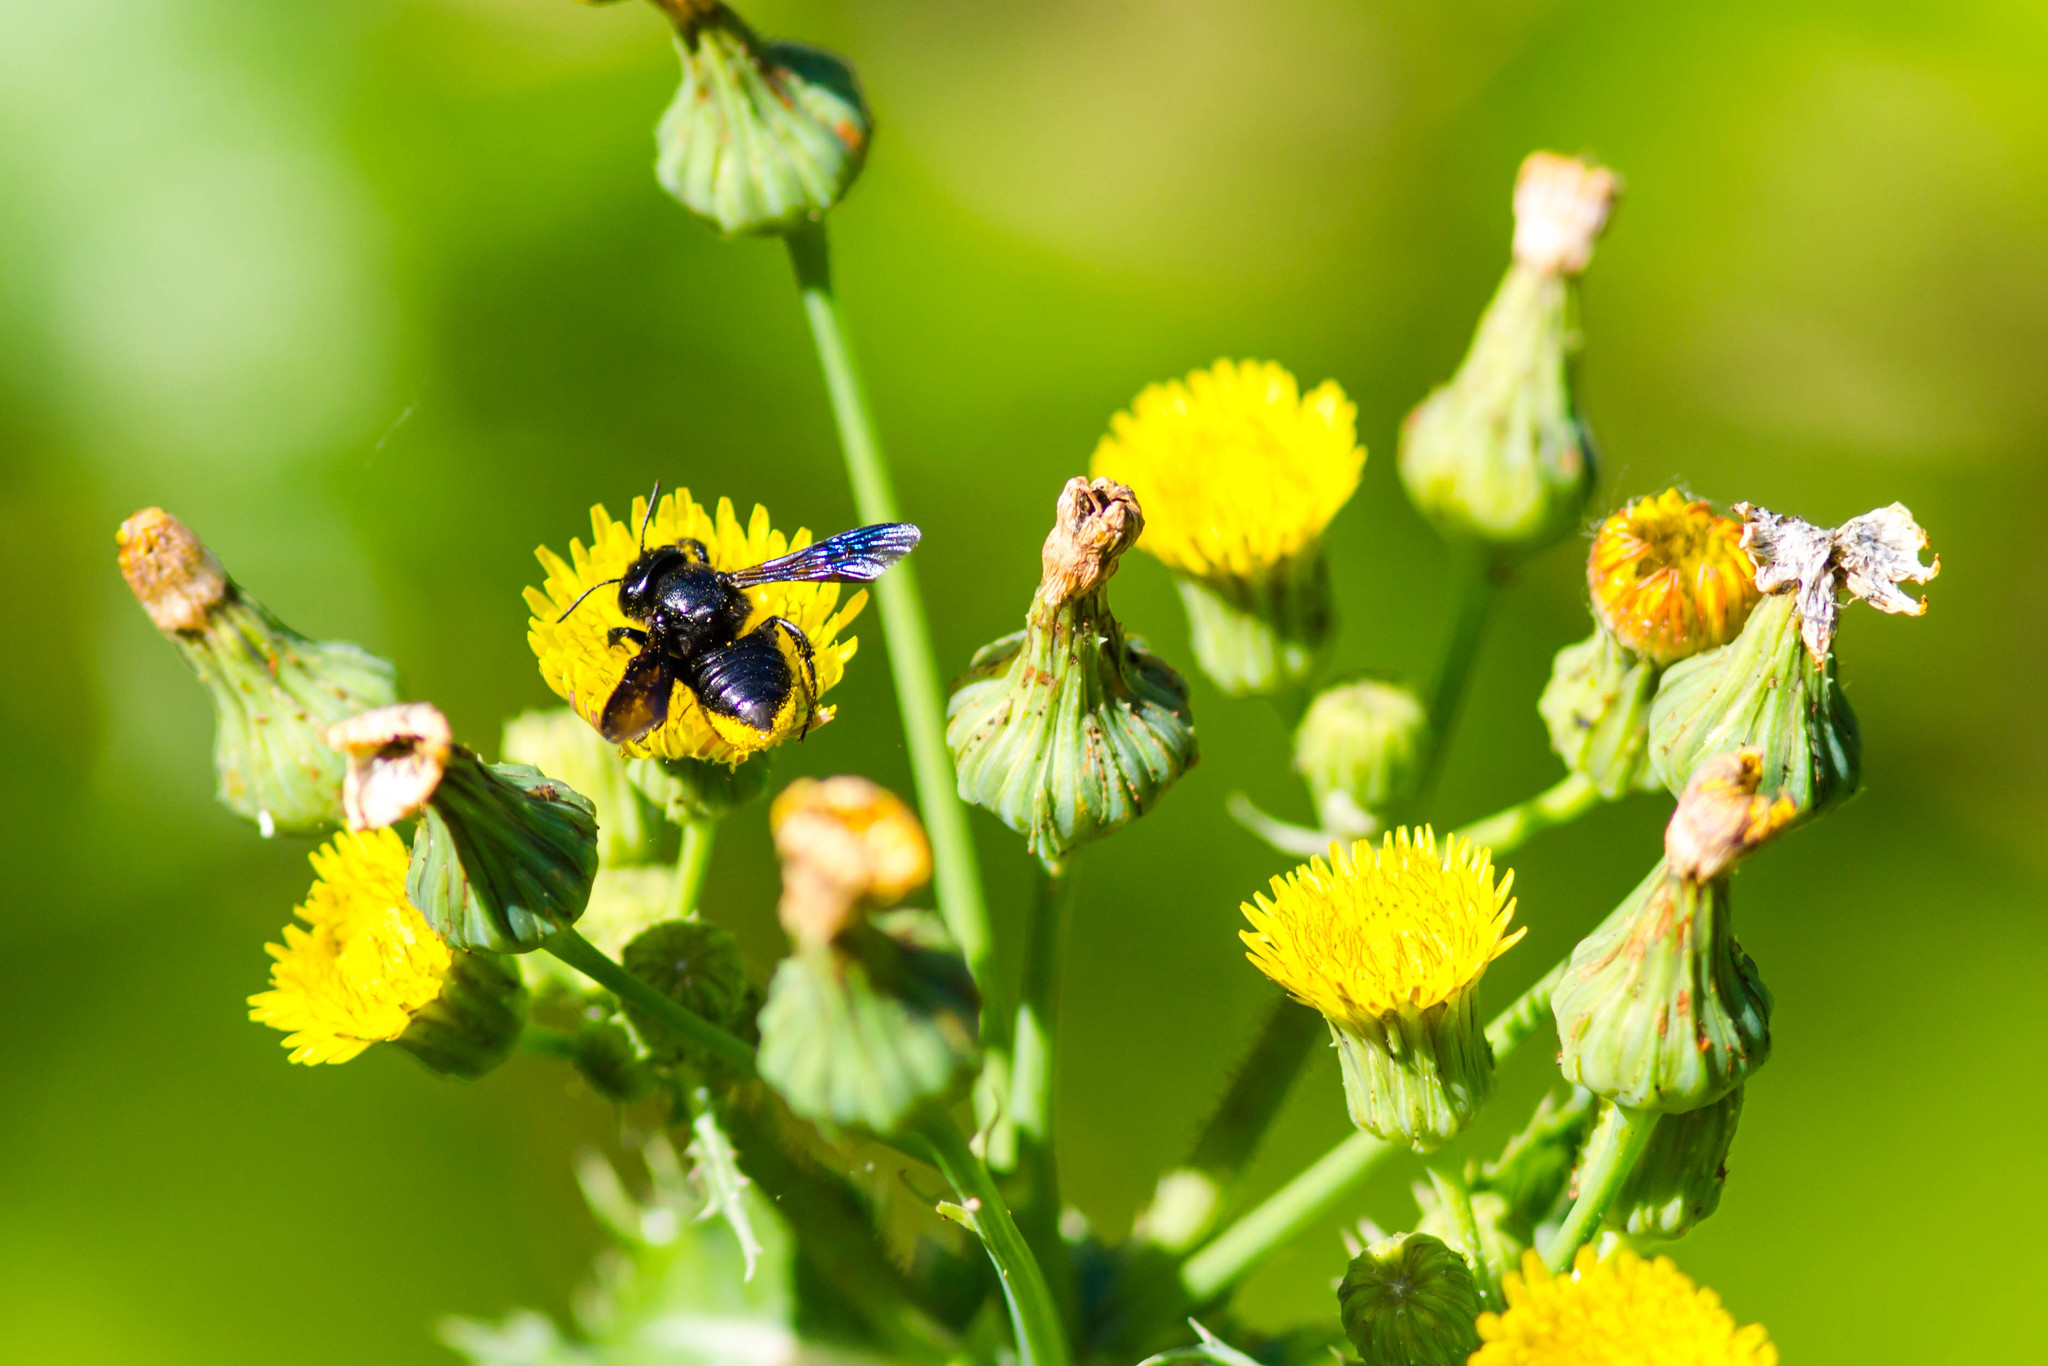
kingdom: Animalia
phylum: Arthropoda
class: Insecta
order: Hymenoptera
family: Megachilidae
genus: Megachile
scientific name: Megachile xylocopoides
